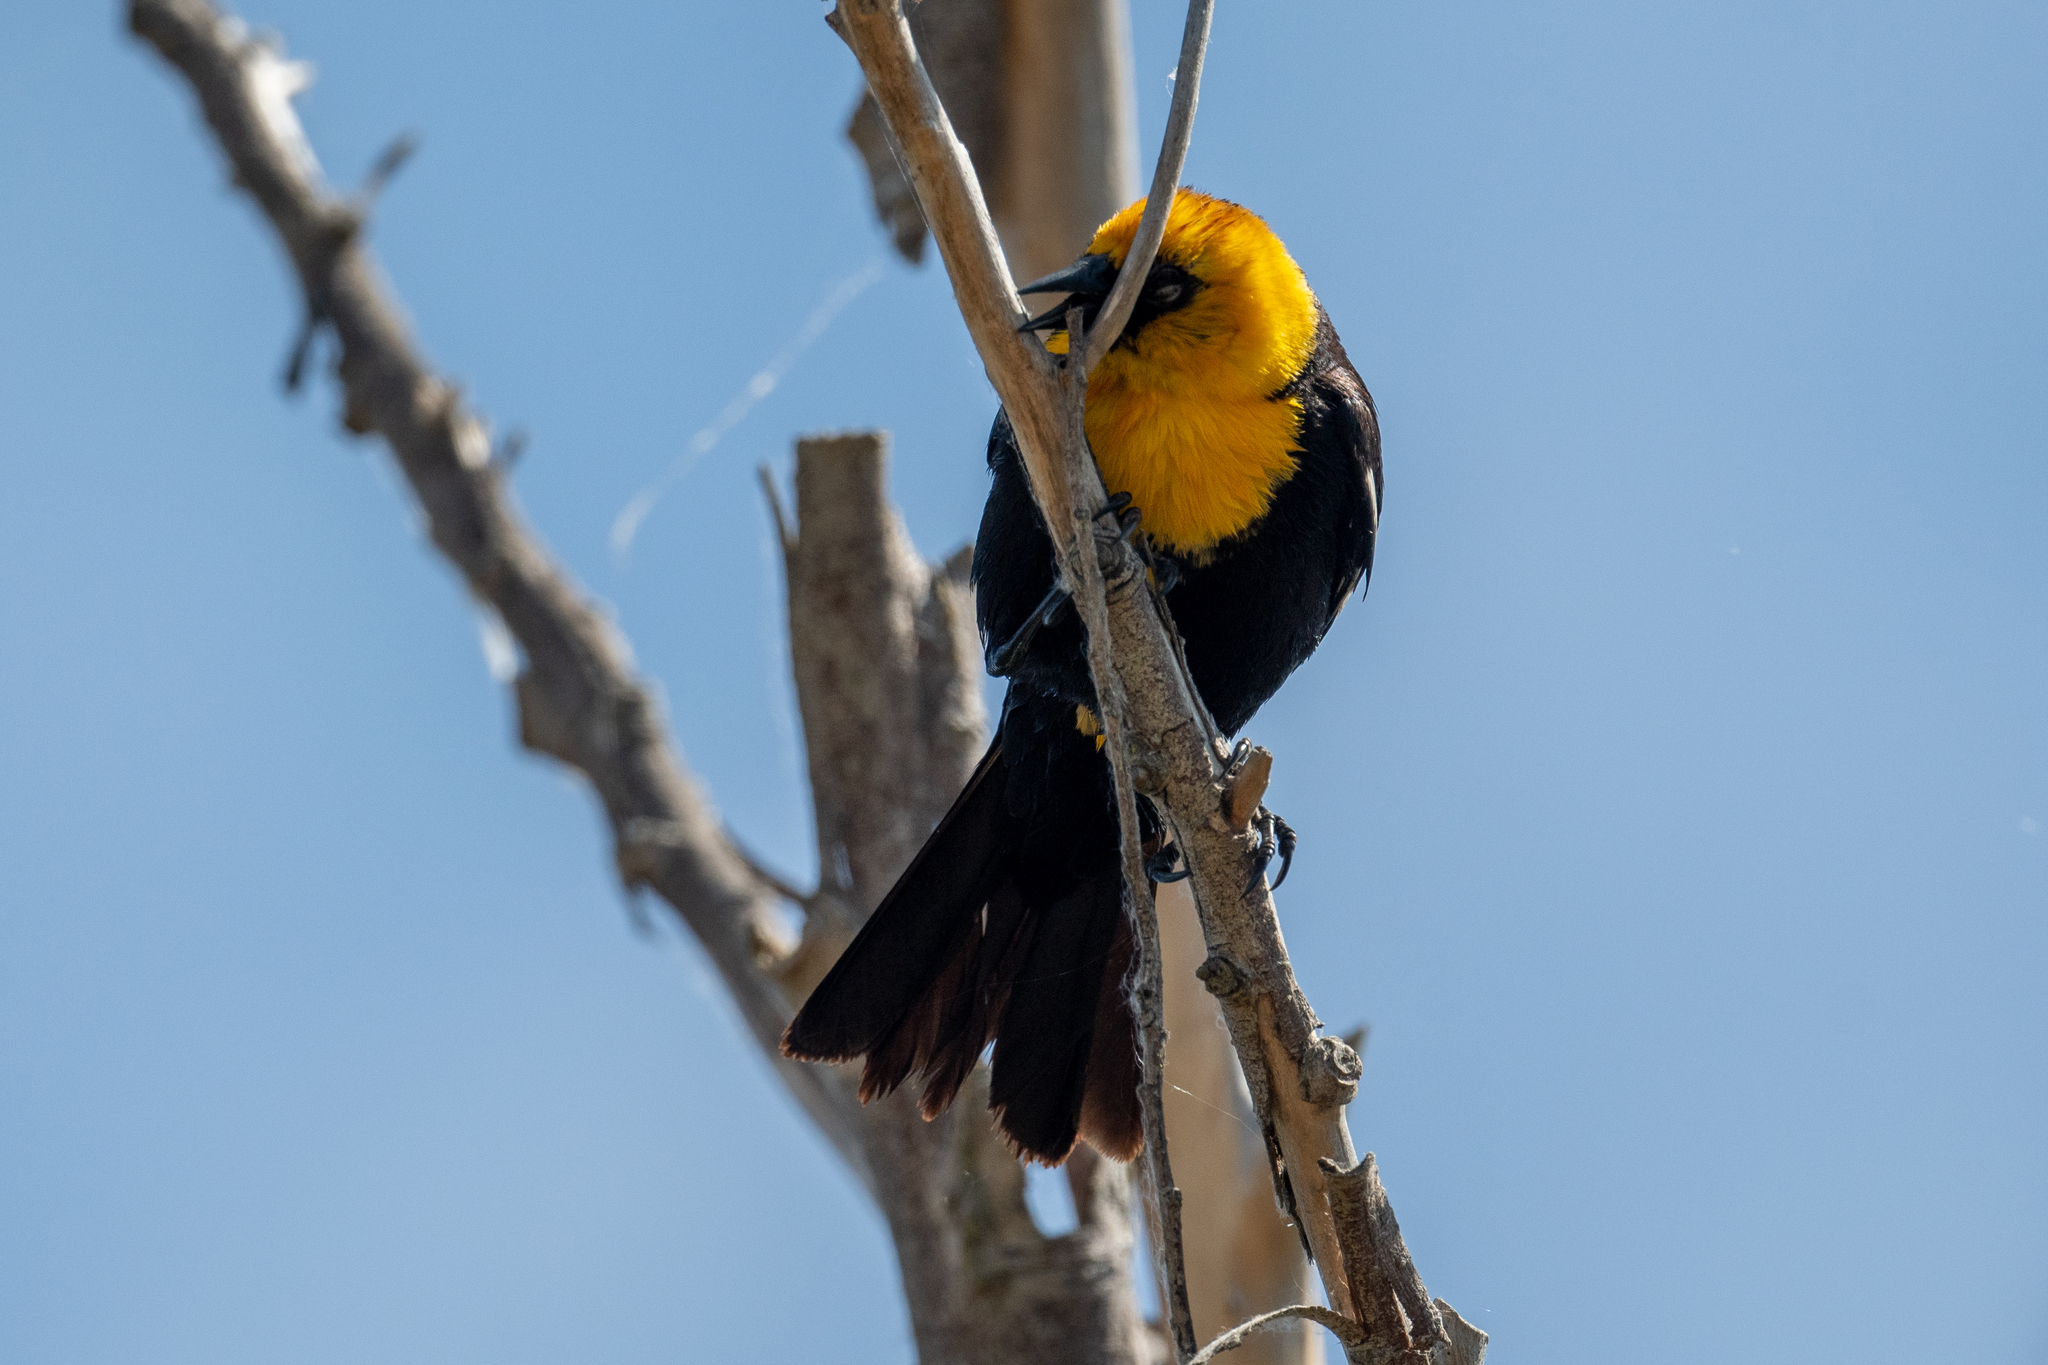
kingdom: Animalia
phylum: Chordata
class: Aves
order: Passeriformes
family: Icteridae
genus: Xanthocephalus
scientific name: Xanthocephalus xanthocephalus
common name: Yellow-headed blackbird
